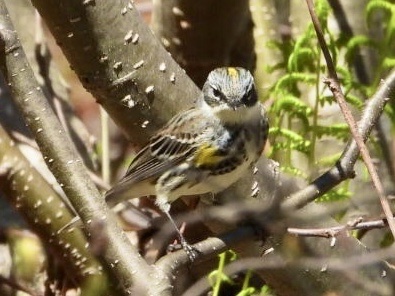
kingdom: Animalia
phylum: Chordata
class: Aves
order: Passeriformes
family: Parulidae
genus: Setophaga
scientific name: Setophaga coronata
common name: Myrtle warbler
